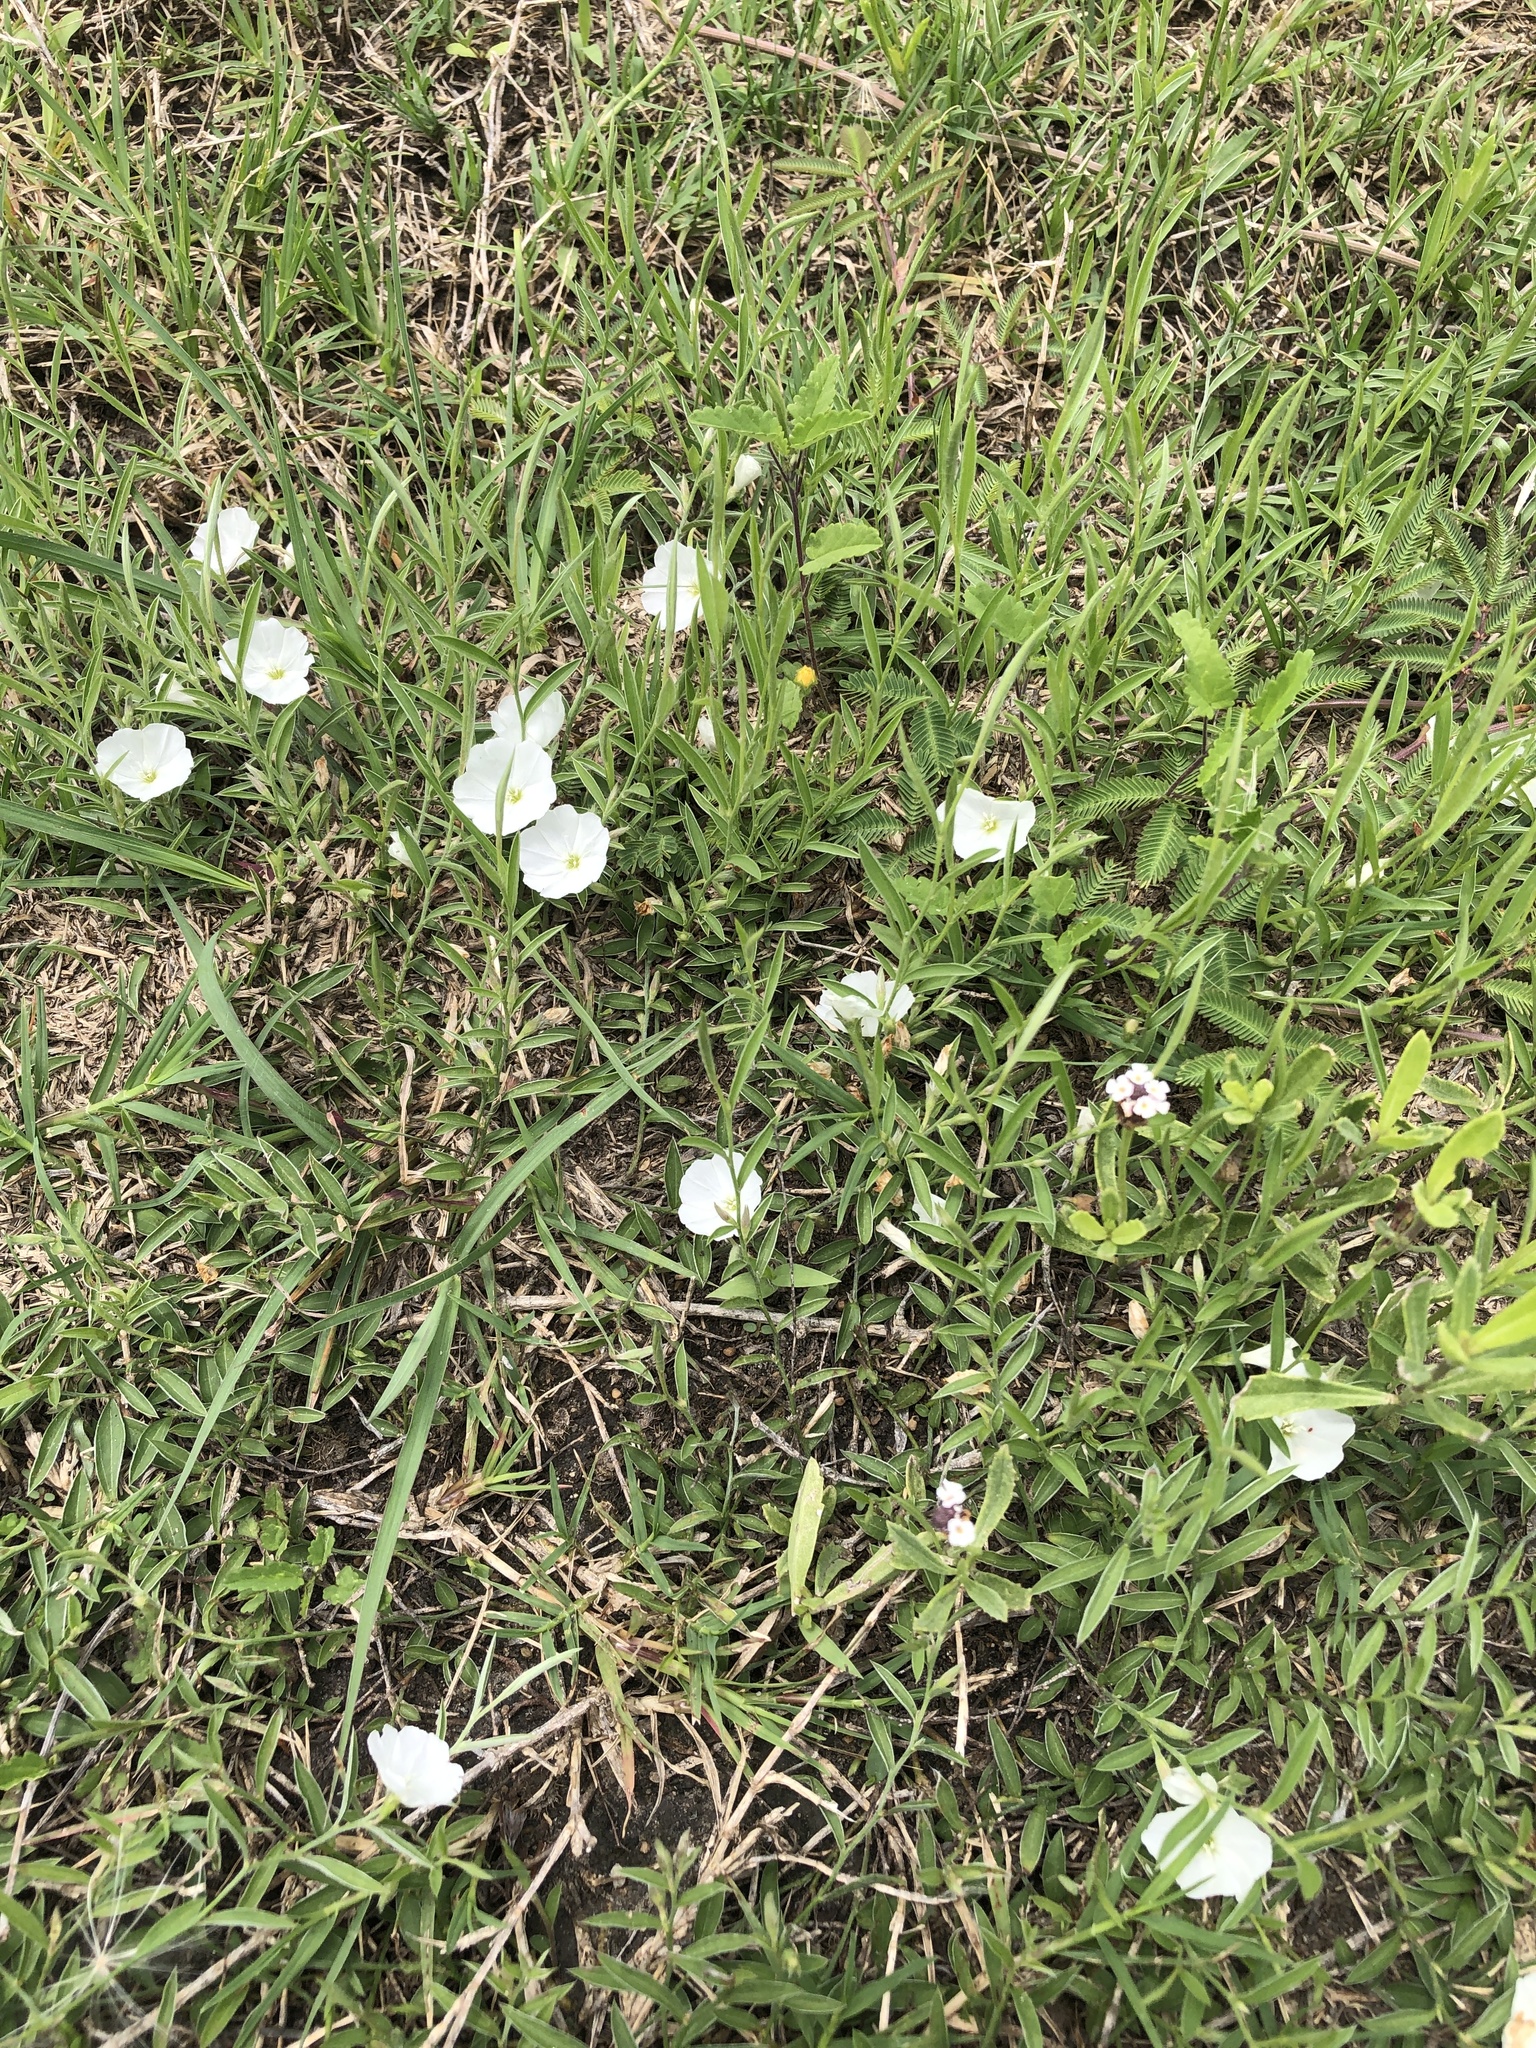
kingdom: Plantae
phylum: Tracheophyta
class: Magnoliopsida
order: Solanales
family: Convolvulaceae
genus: Evolvulus
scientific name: Evolvulus sericeus
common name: Blue dots
